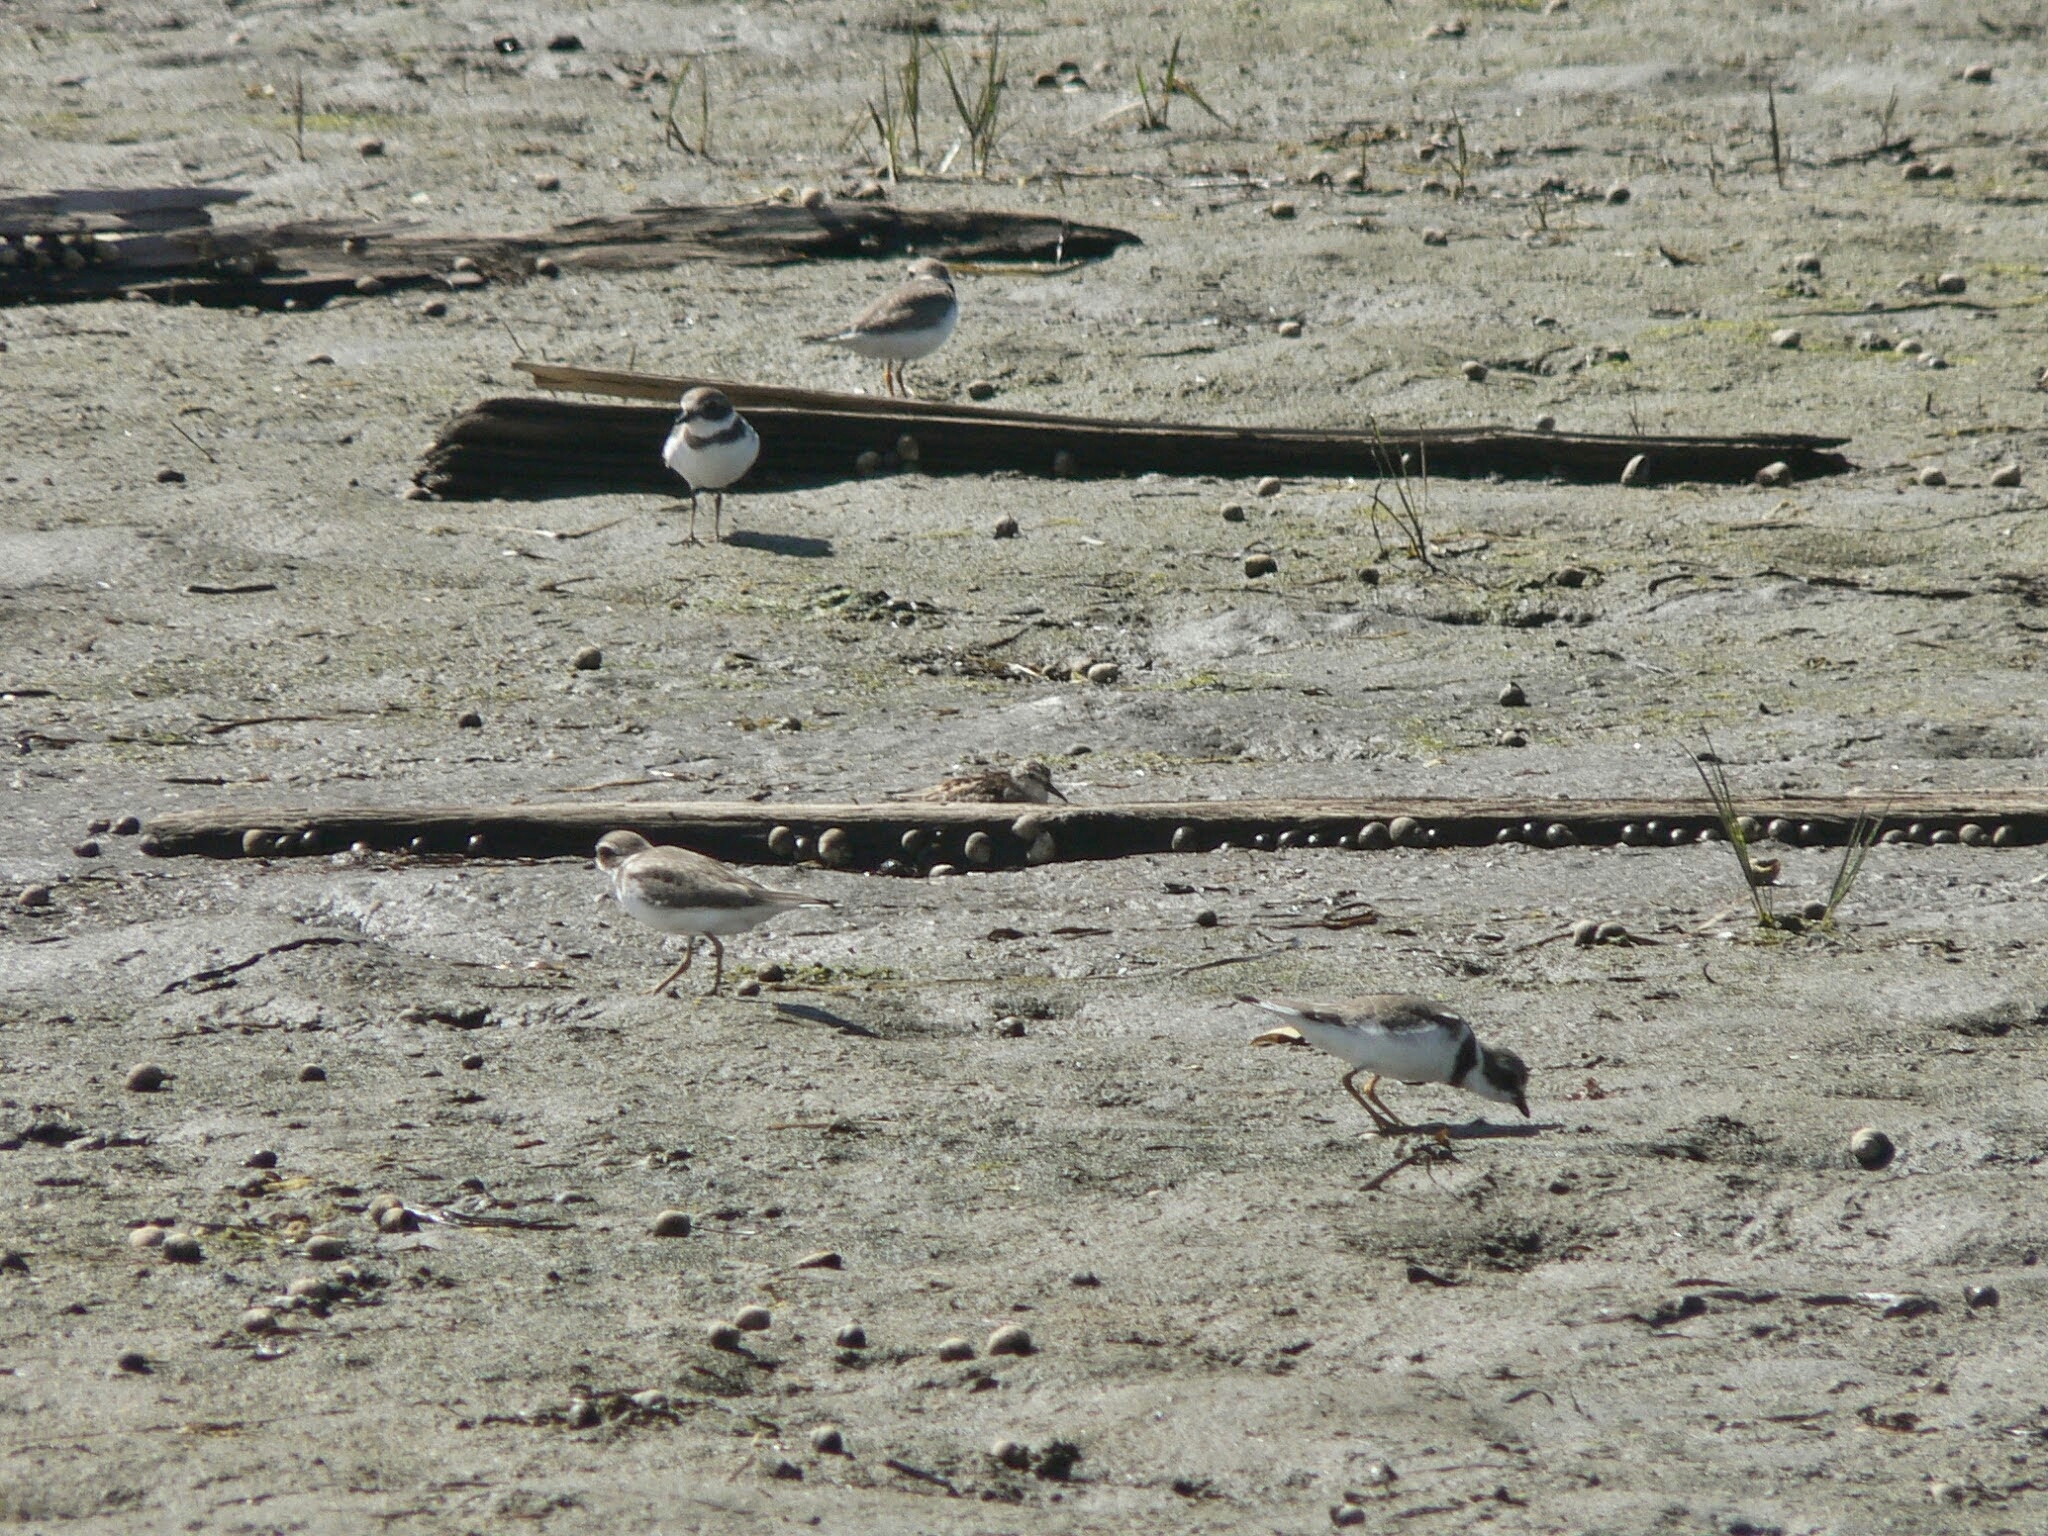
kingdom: Animalia
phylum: Chordata
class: Aves
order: Charadriiformes
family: Charadriidae
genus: Charadrius
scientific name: Charadrius semipalmatus
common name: Semipalmated plover
